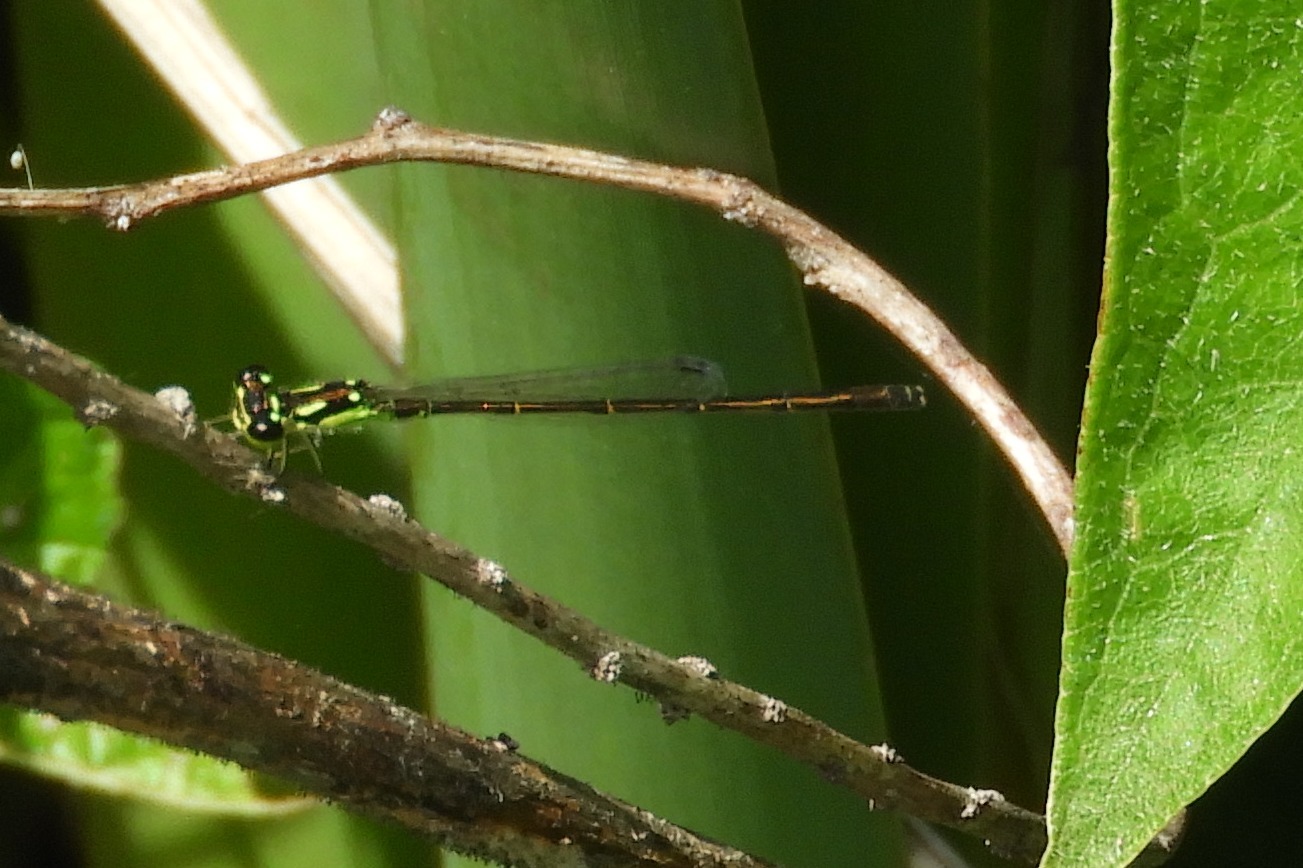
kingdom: Animalia
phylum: Arthropoda
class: Insecta
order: Odonata
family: Coenagrionidae
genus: Ischnura
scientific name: Ischnura posita
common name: Fragile forktail
